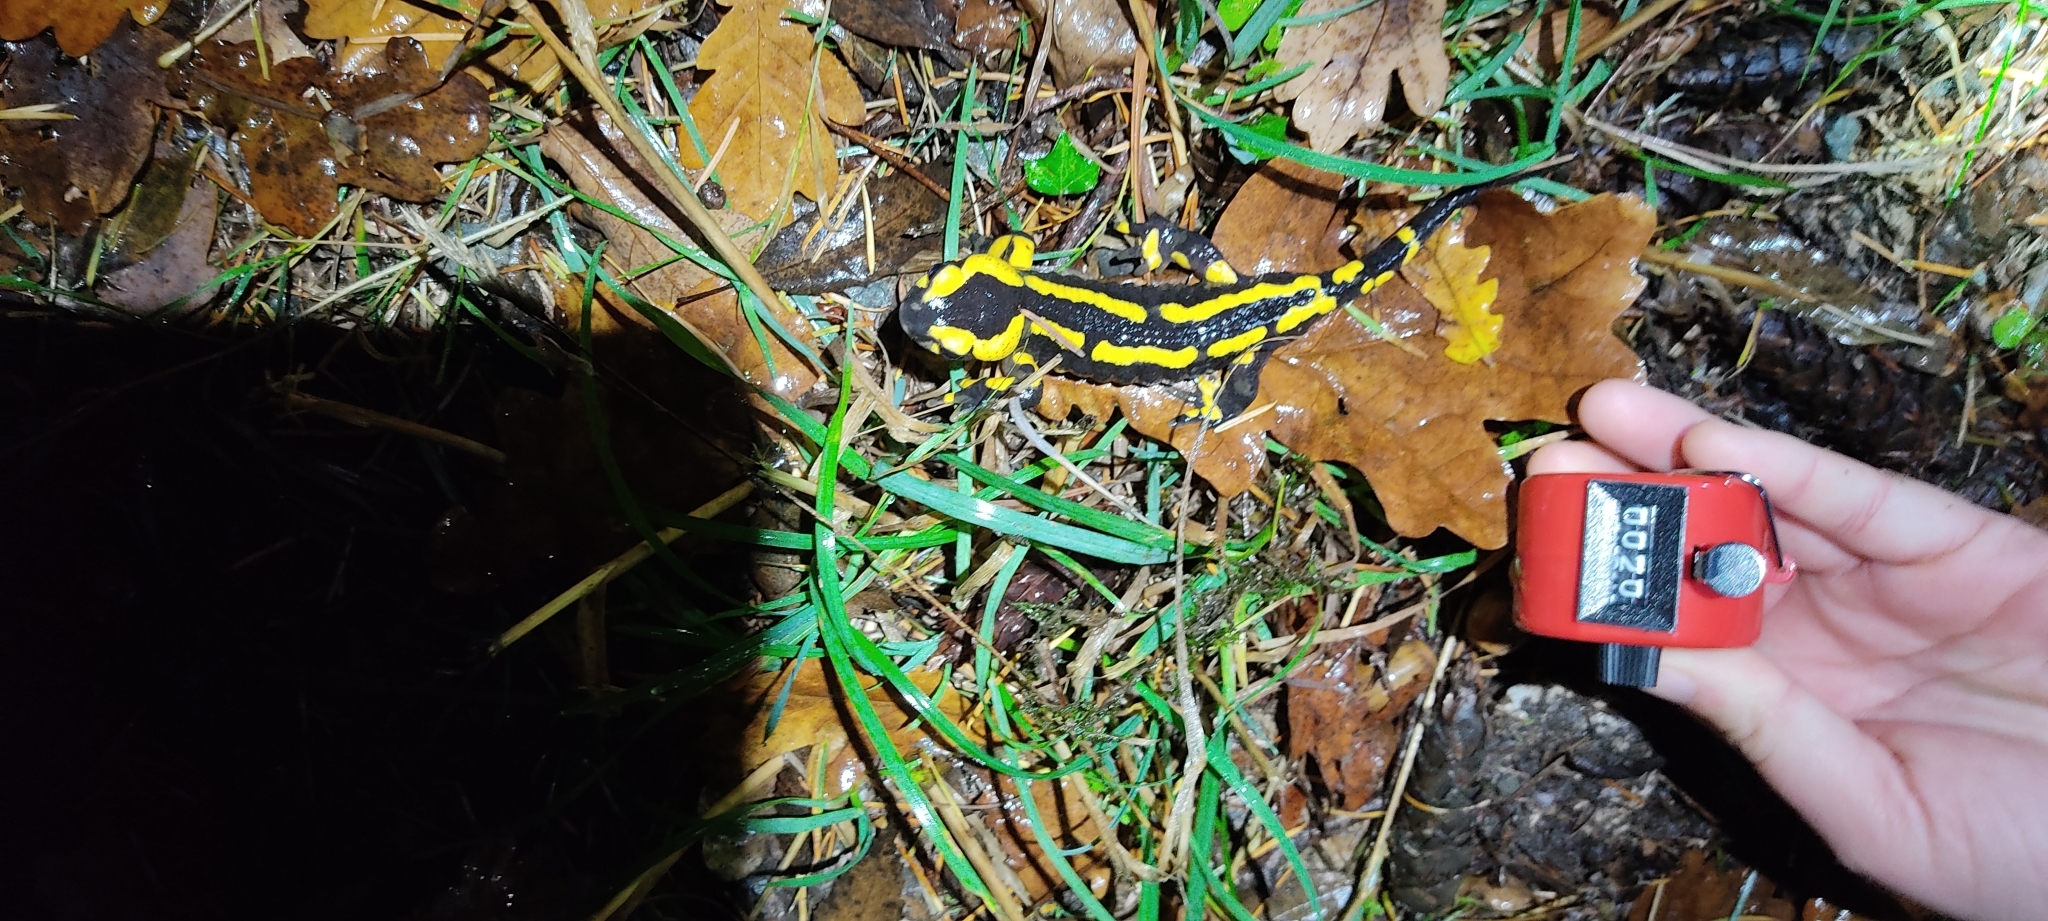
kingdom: Animalia
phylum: Chordata
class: Amphibia
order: Caudata
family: Salamandridae
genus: Salamandra
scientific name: Salamandra salamandra
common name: Fire salamander
